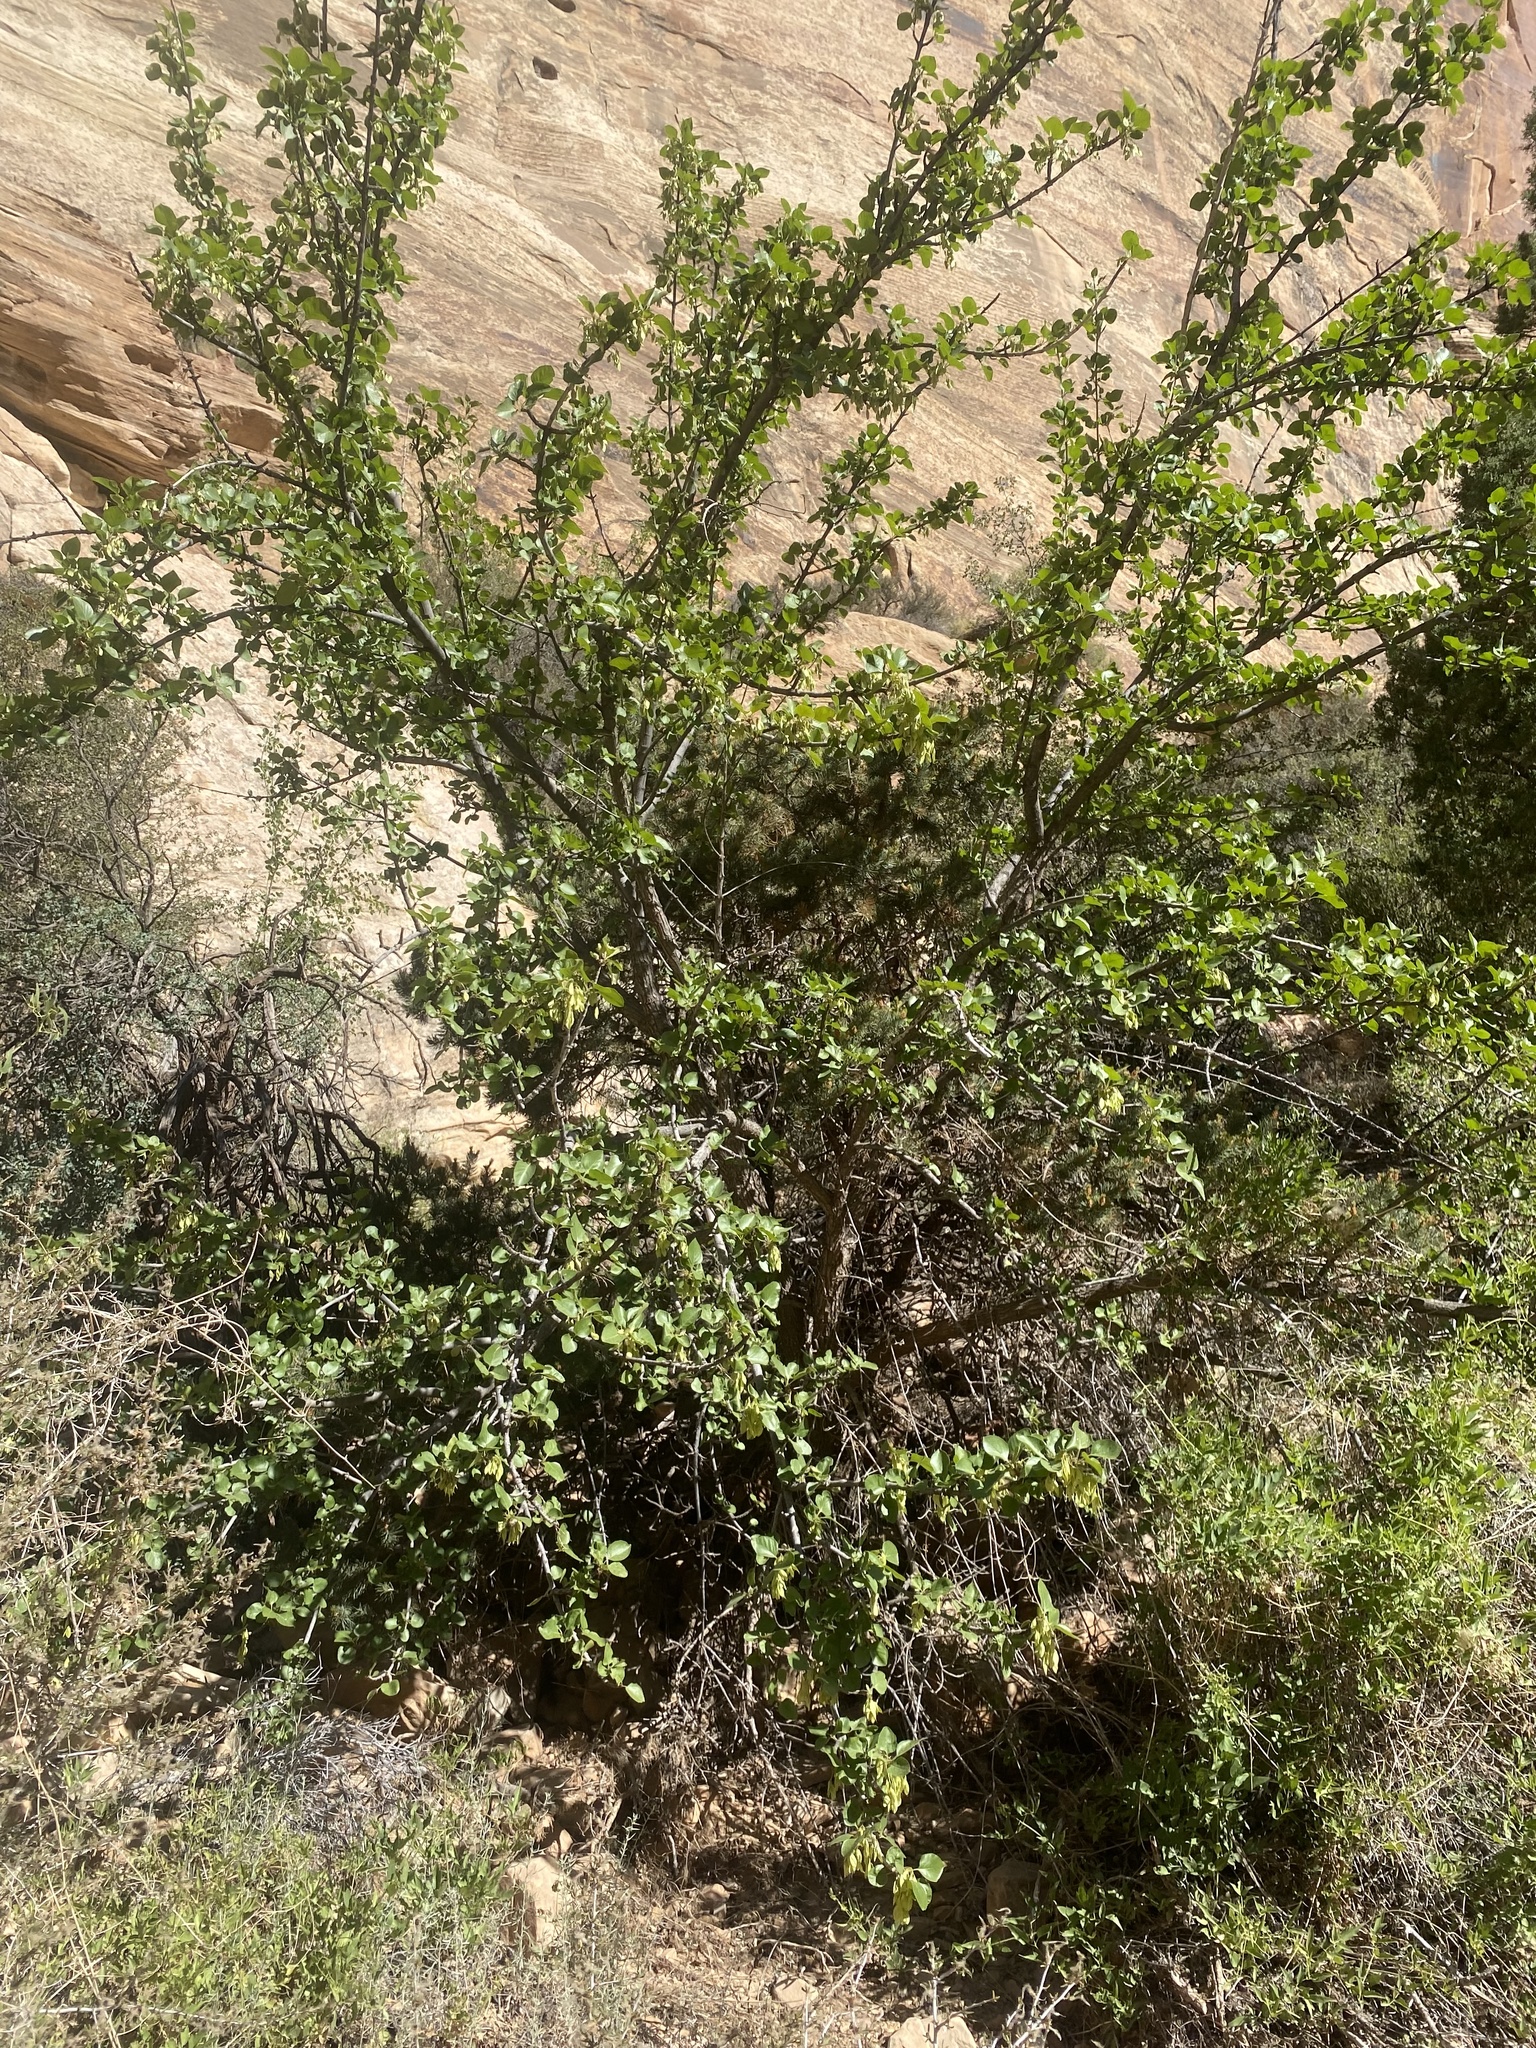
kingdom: Plantae
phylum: Tracheophyta
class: Magnoliopsida
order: Lamiales
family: Oleaceae
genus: Fraxinus
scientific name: Fraxinus anomala
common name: Utah ash
